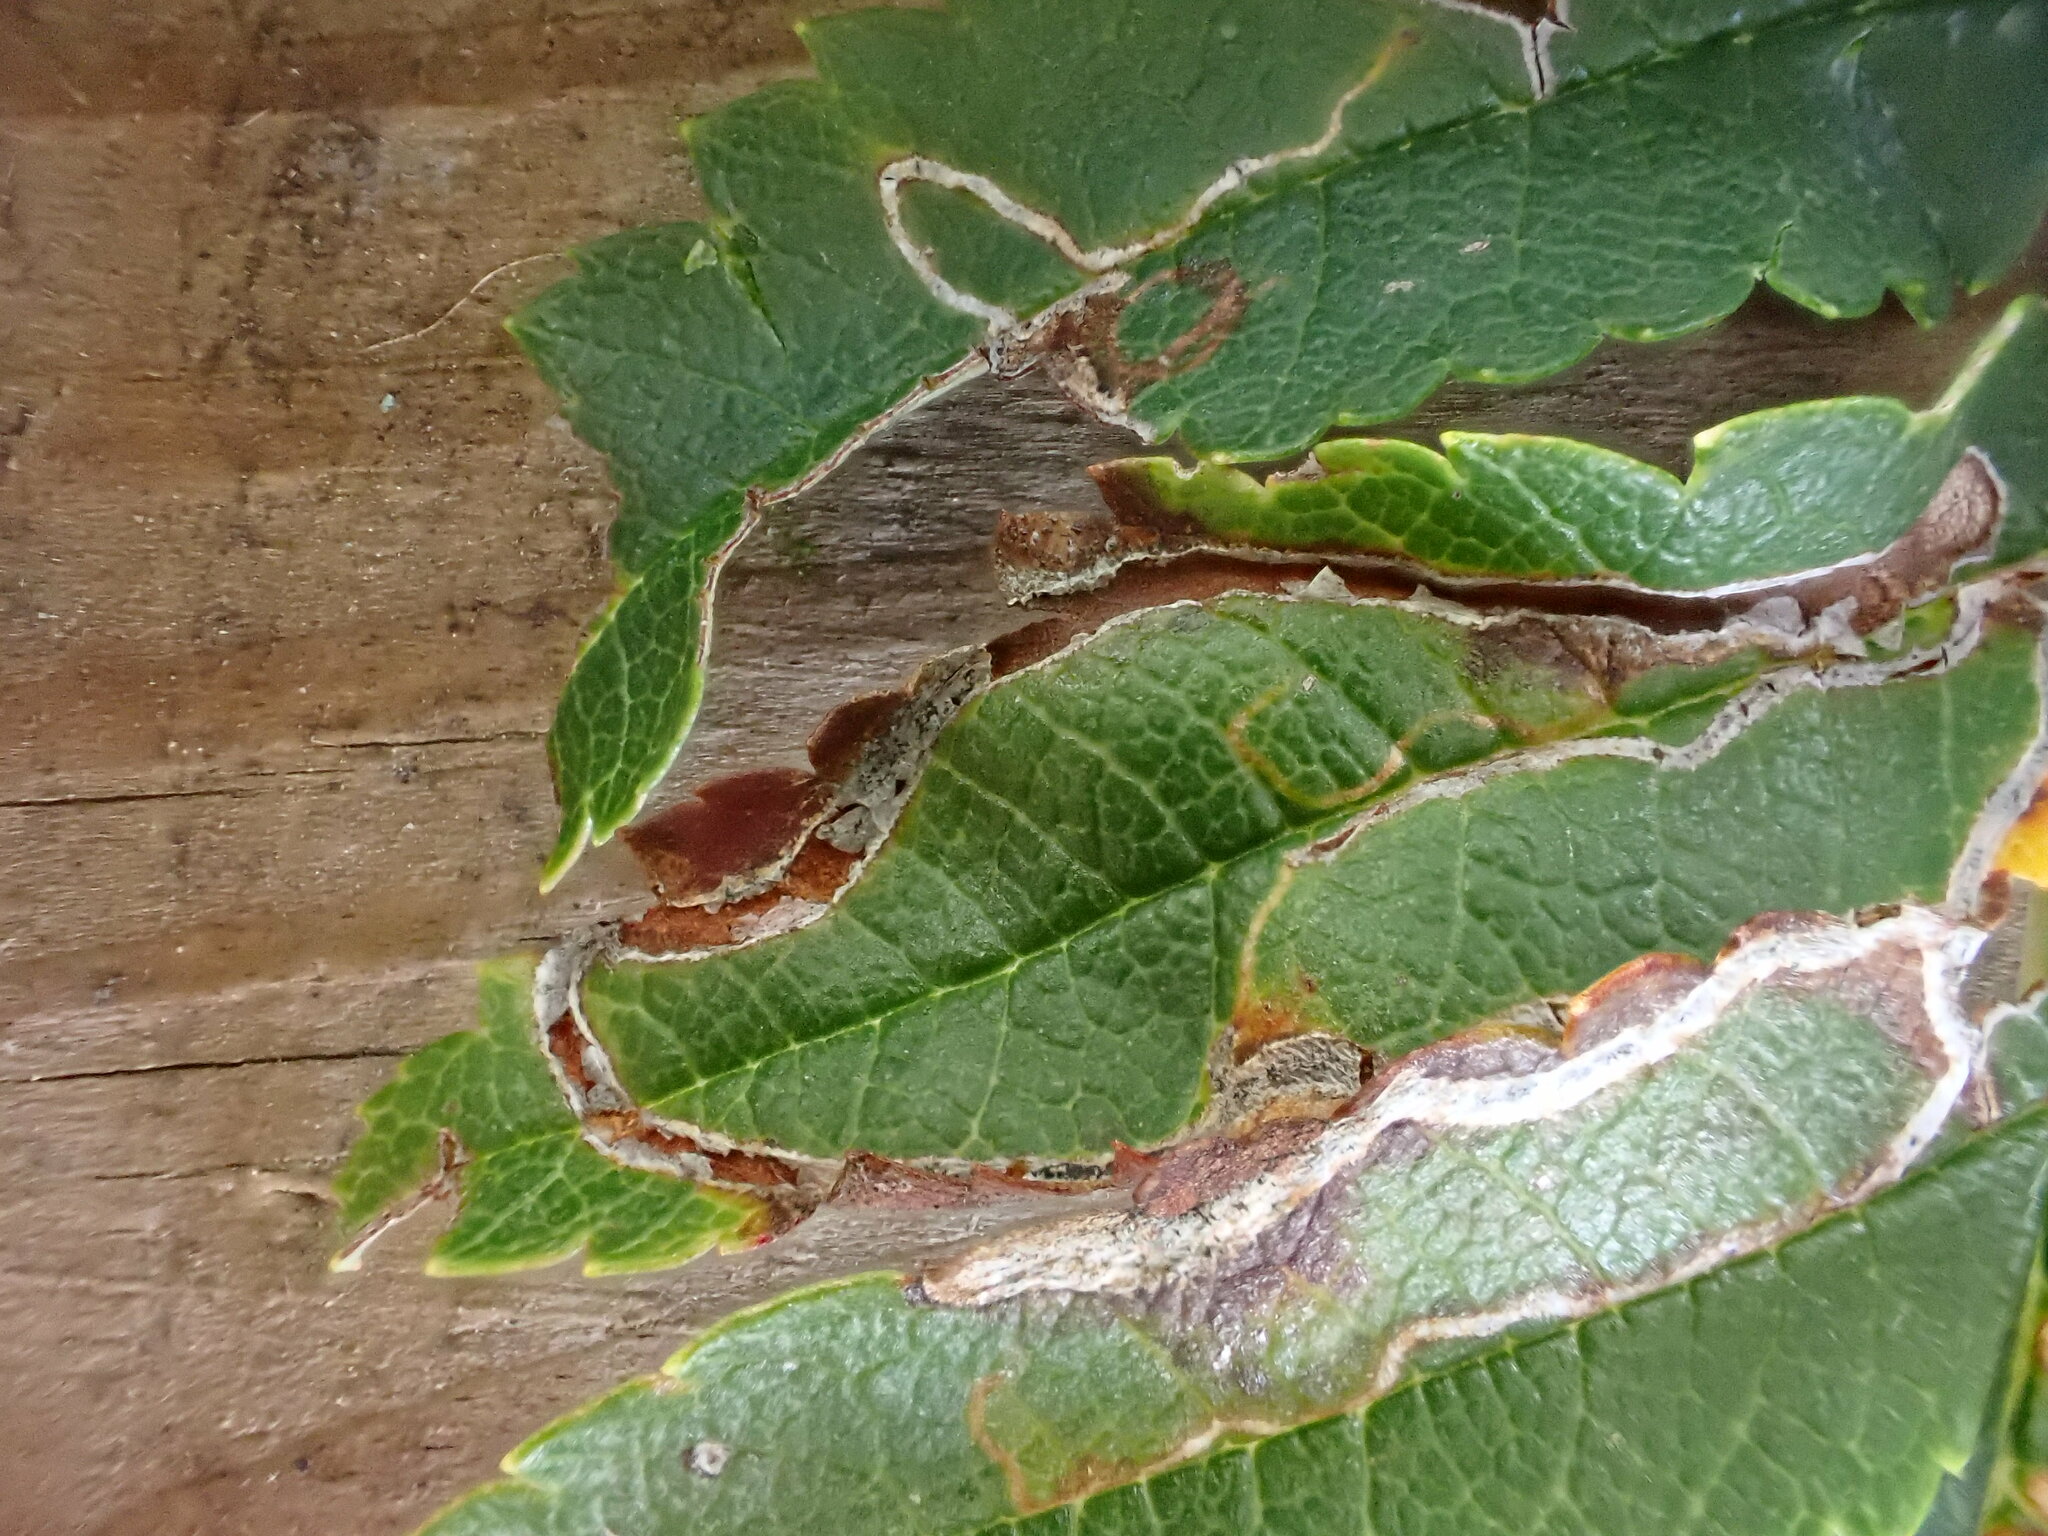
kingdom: Animalia
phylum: Arthropoda
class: Insecta
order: Lepidoptera
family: Lyonetiidae
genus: Lyonetia
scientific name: Lyonetia clerkella
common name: Apple leaf miner
